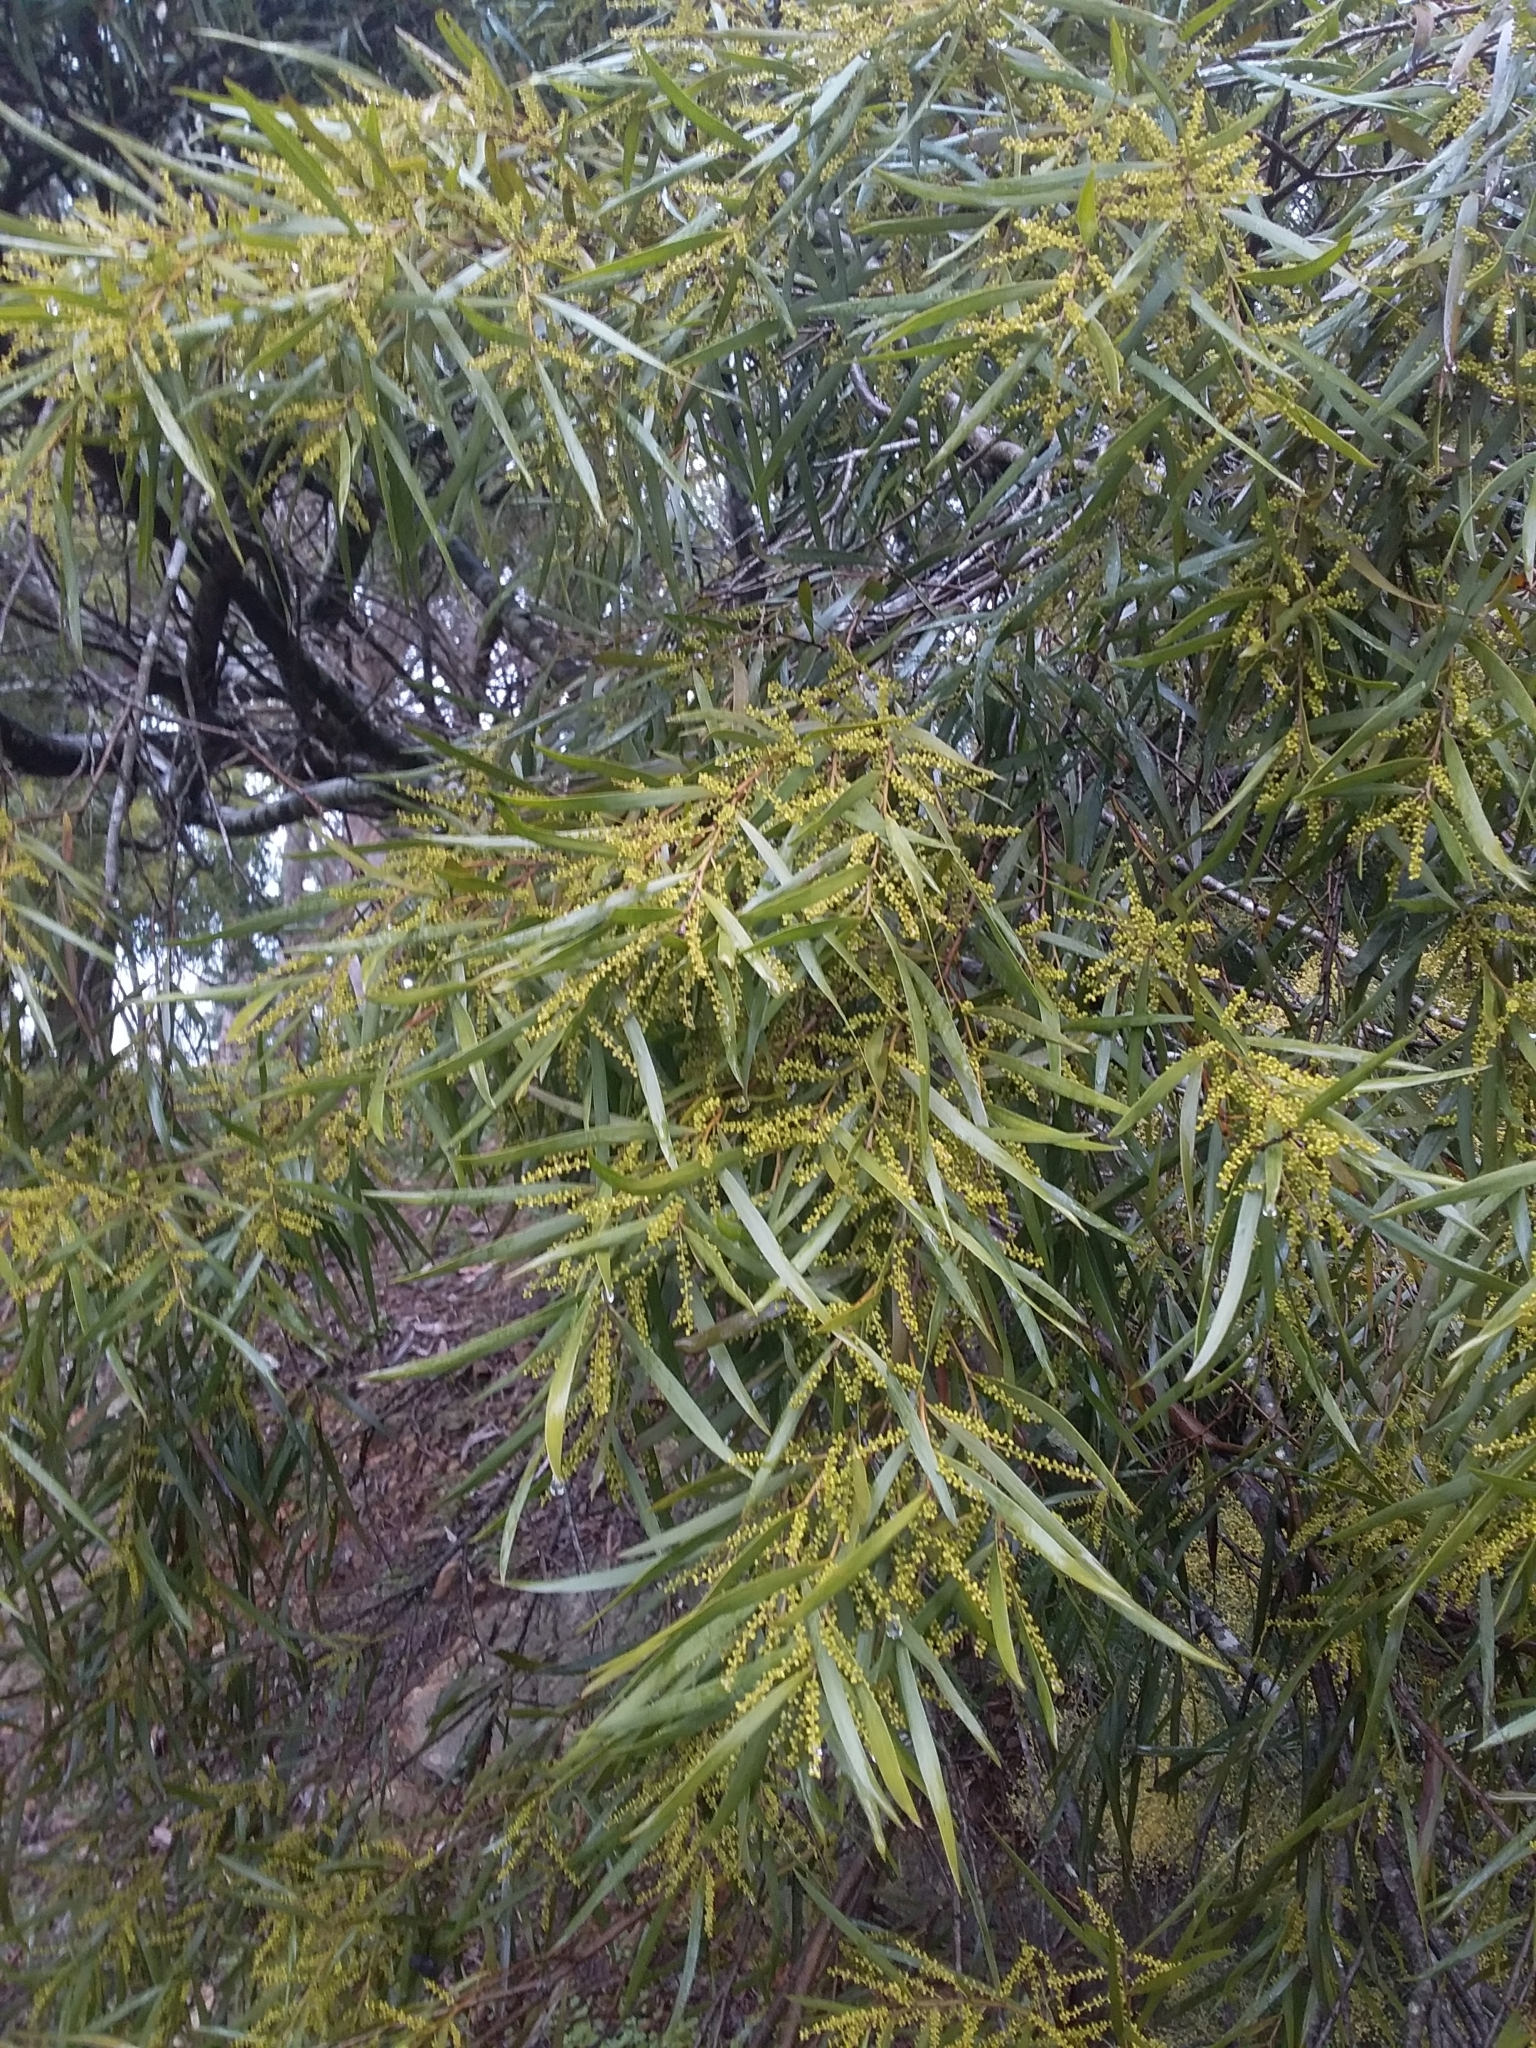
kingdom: Plantae
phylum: Tracheophyta
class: Magnoliopsida
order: Fabales
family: Fabaceae
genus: Acacia
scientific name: Acacia longifolia
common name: Sydney golden wattle
